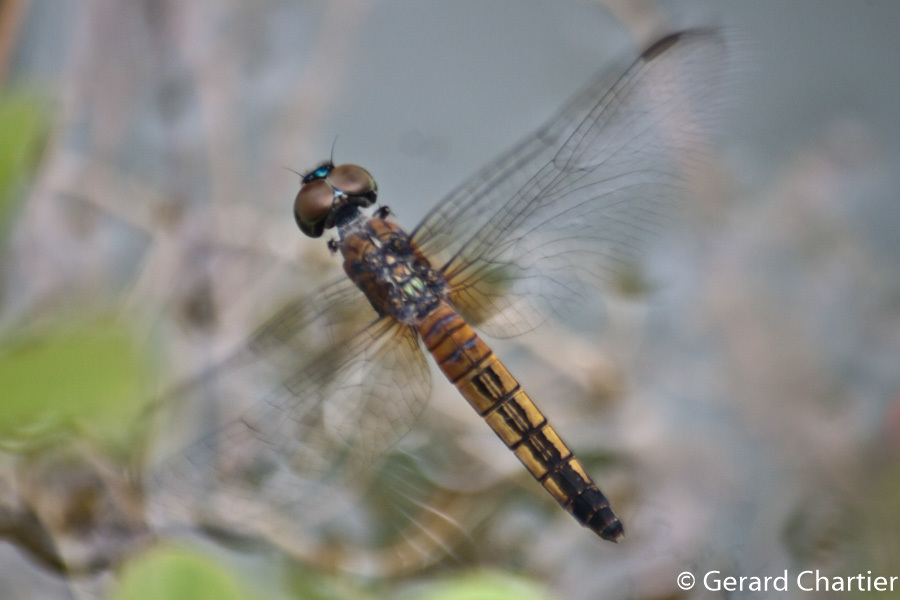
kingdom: Animalia
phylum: Arthropoda
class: Insecta
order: Odonata
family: Libellulidae
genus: Brachydiplax
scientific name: Brachydiplax chalybea
